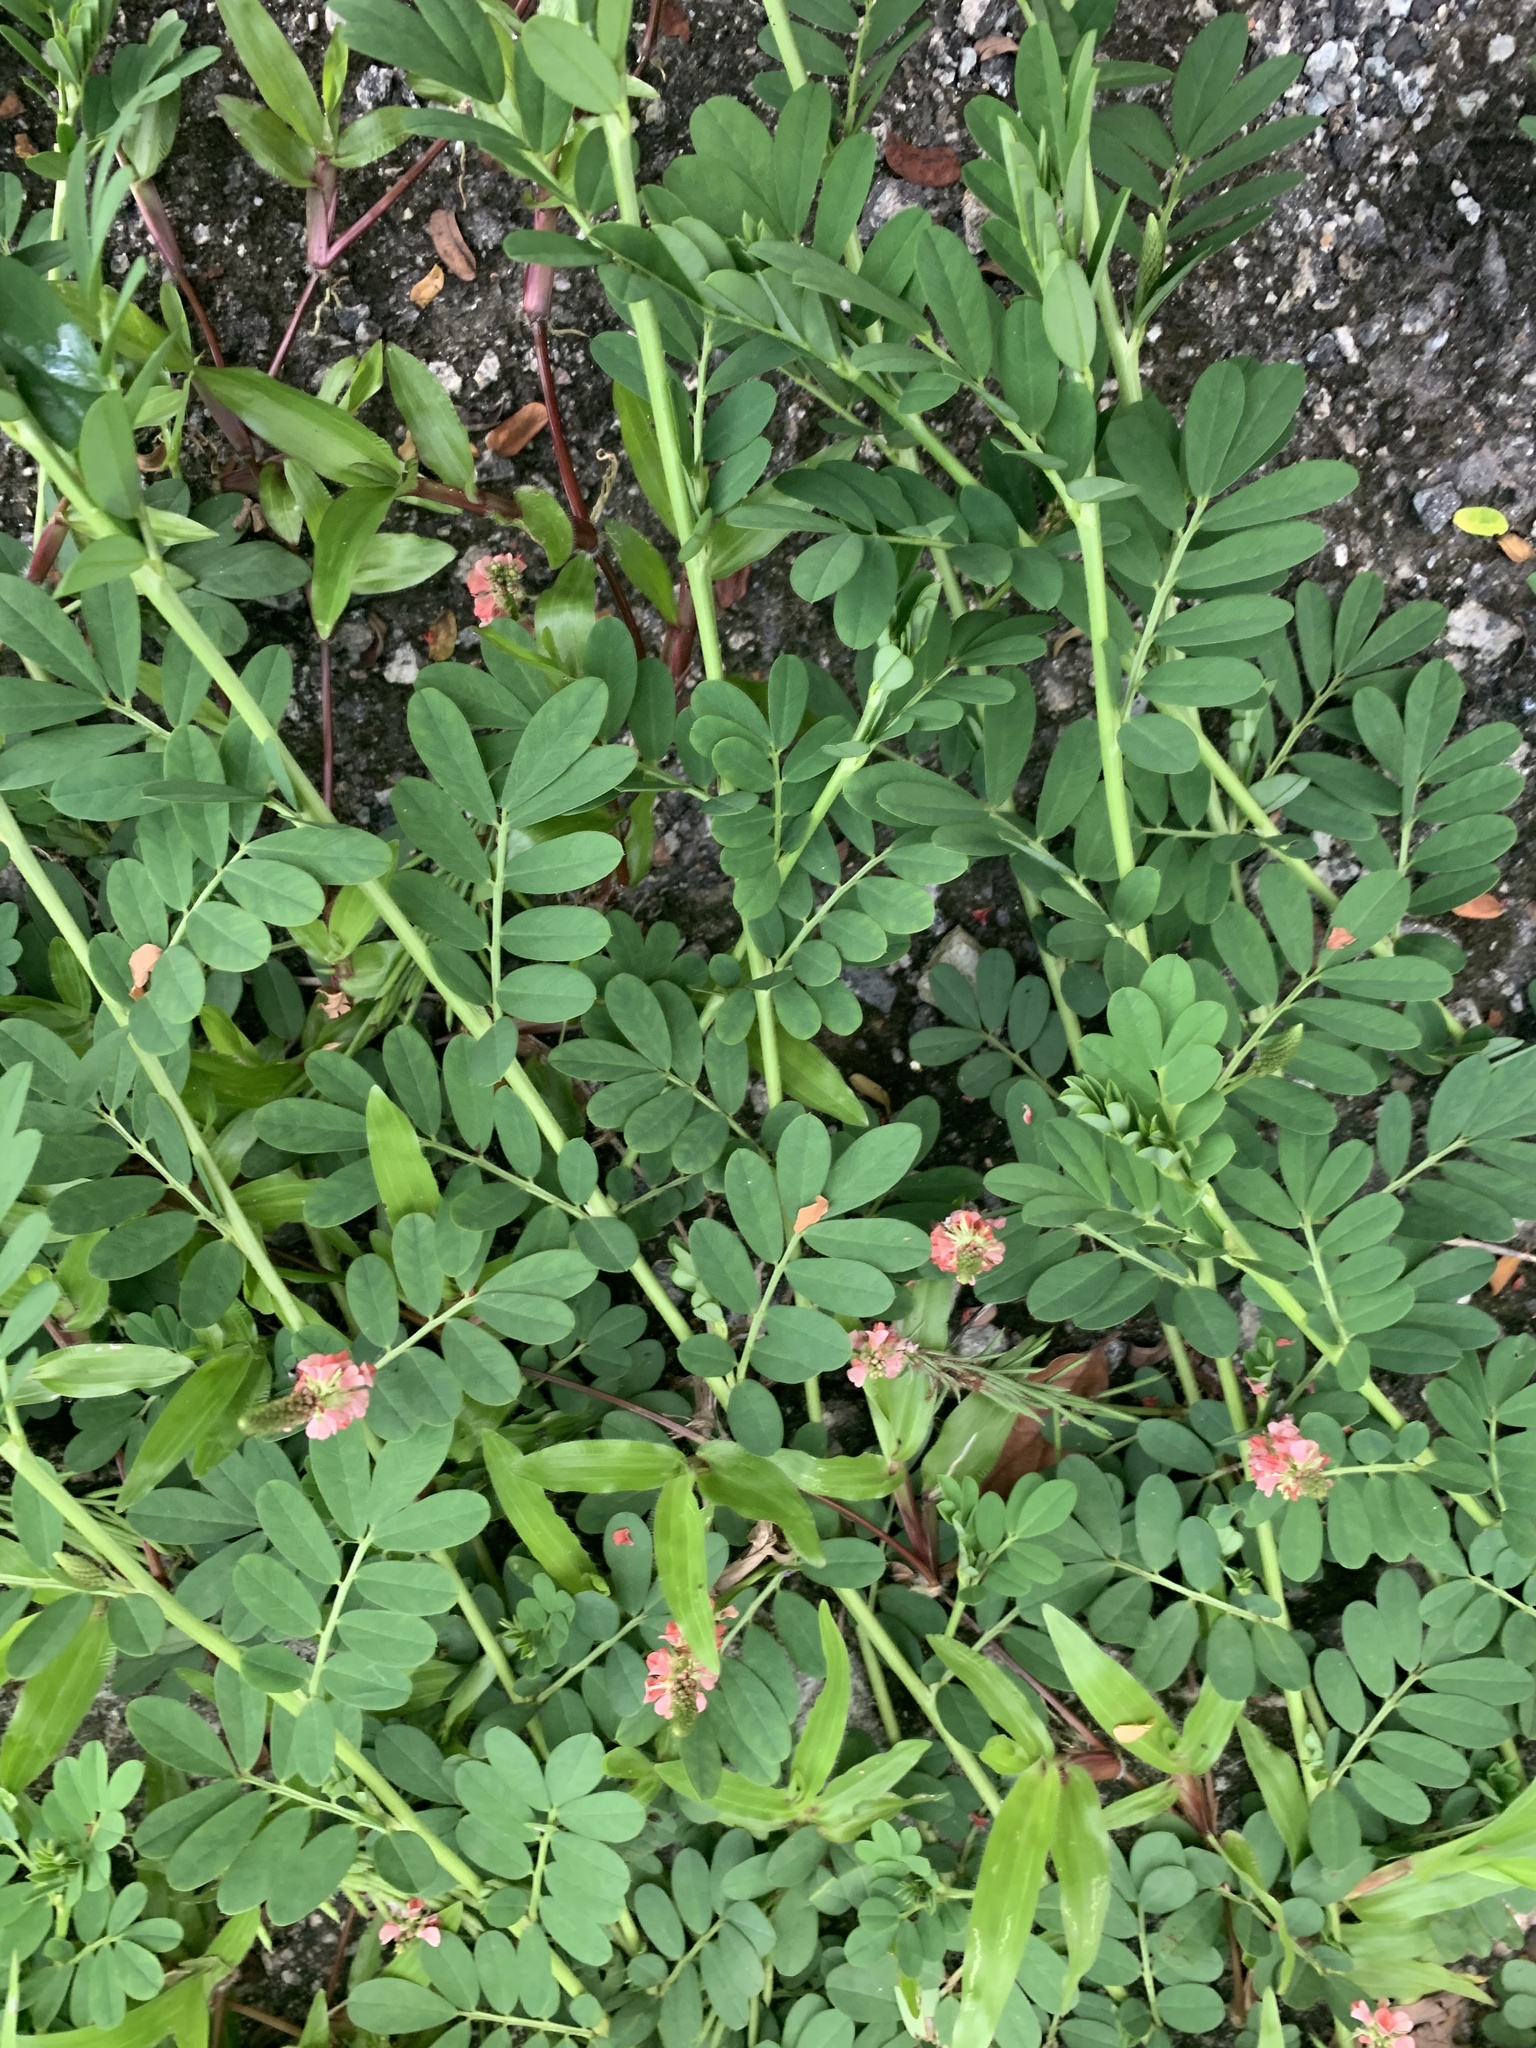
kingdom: Plantae
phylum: Tracheophyta
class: Magnoliopsida
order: Fabales
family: Fabaceae
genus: Indigofera
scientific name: Indigofera hendecaphylla
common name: Trailing indigo
